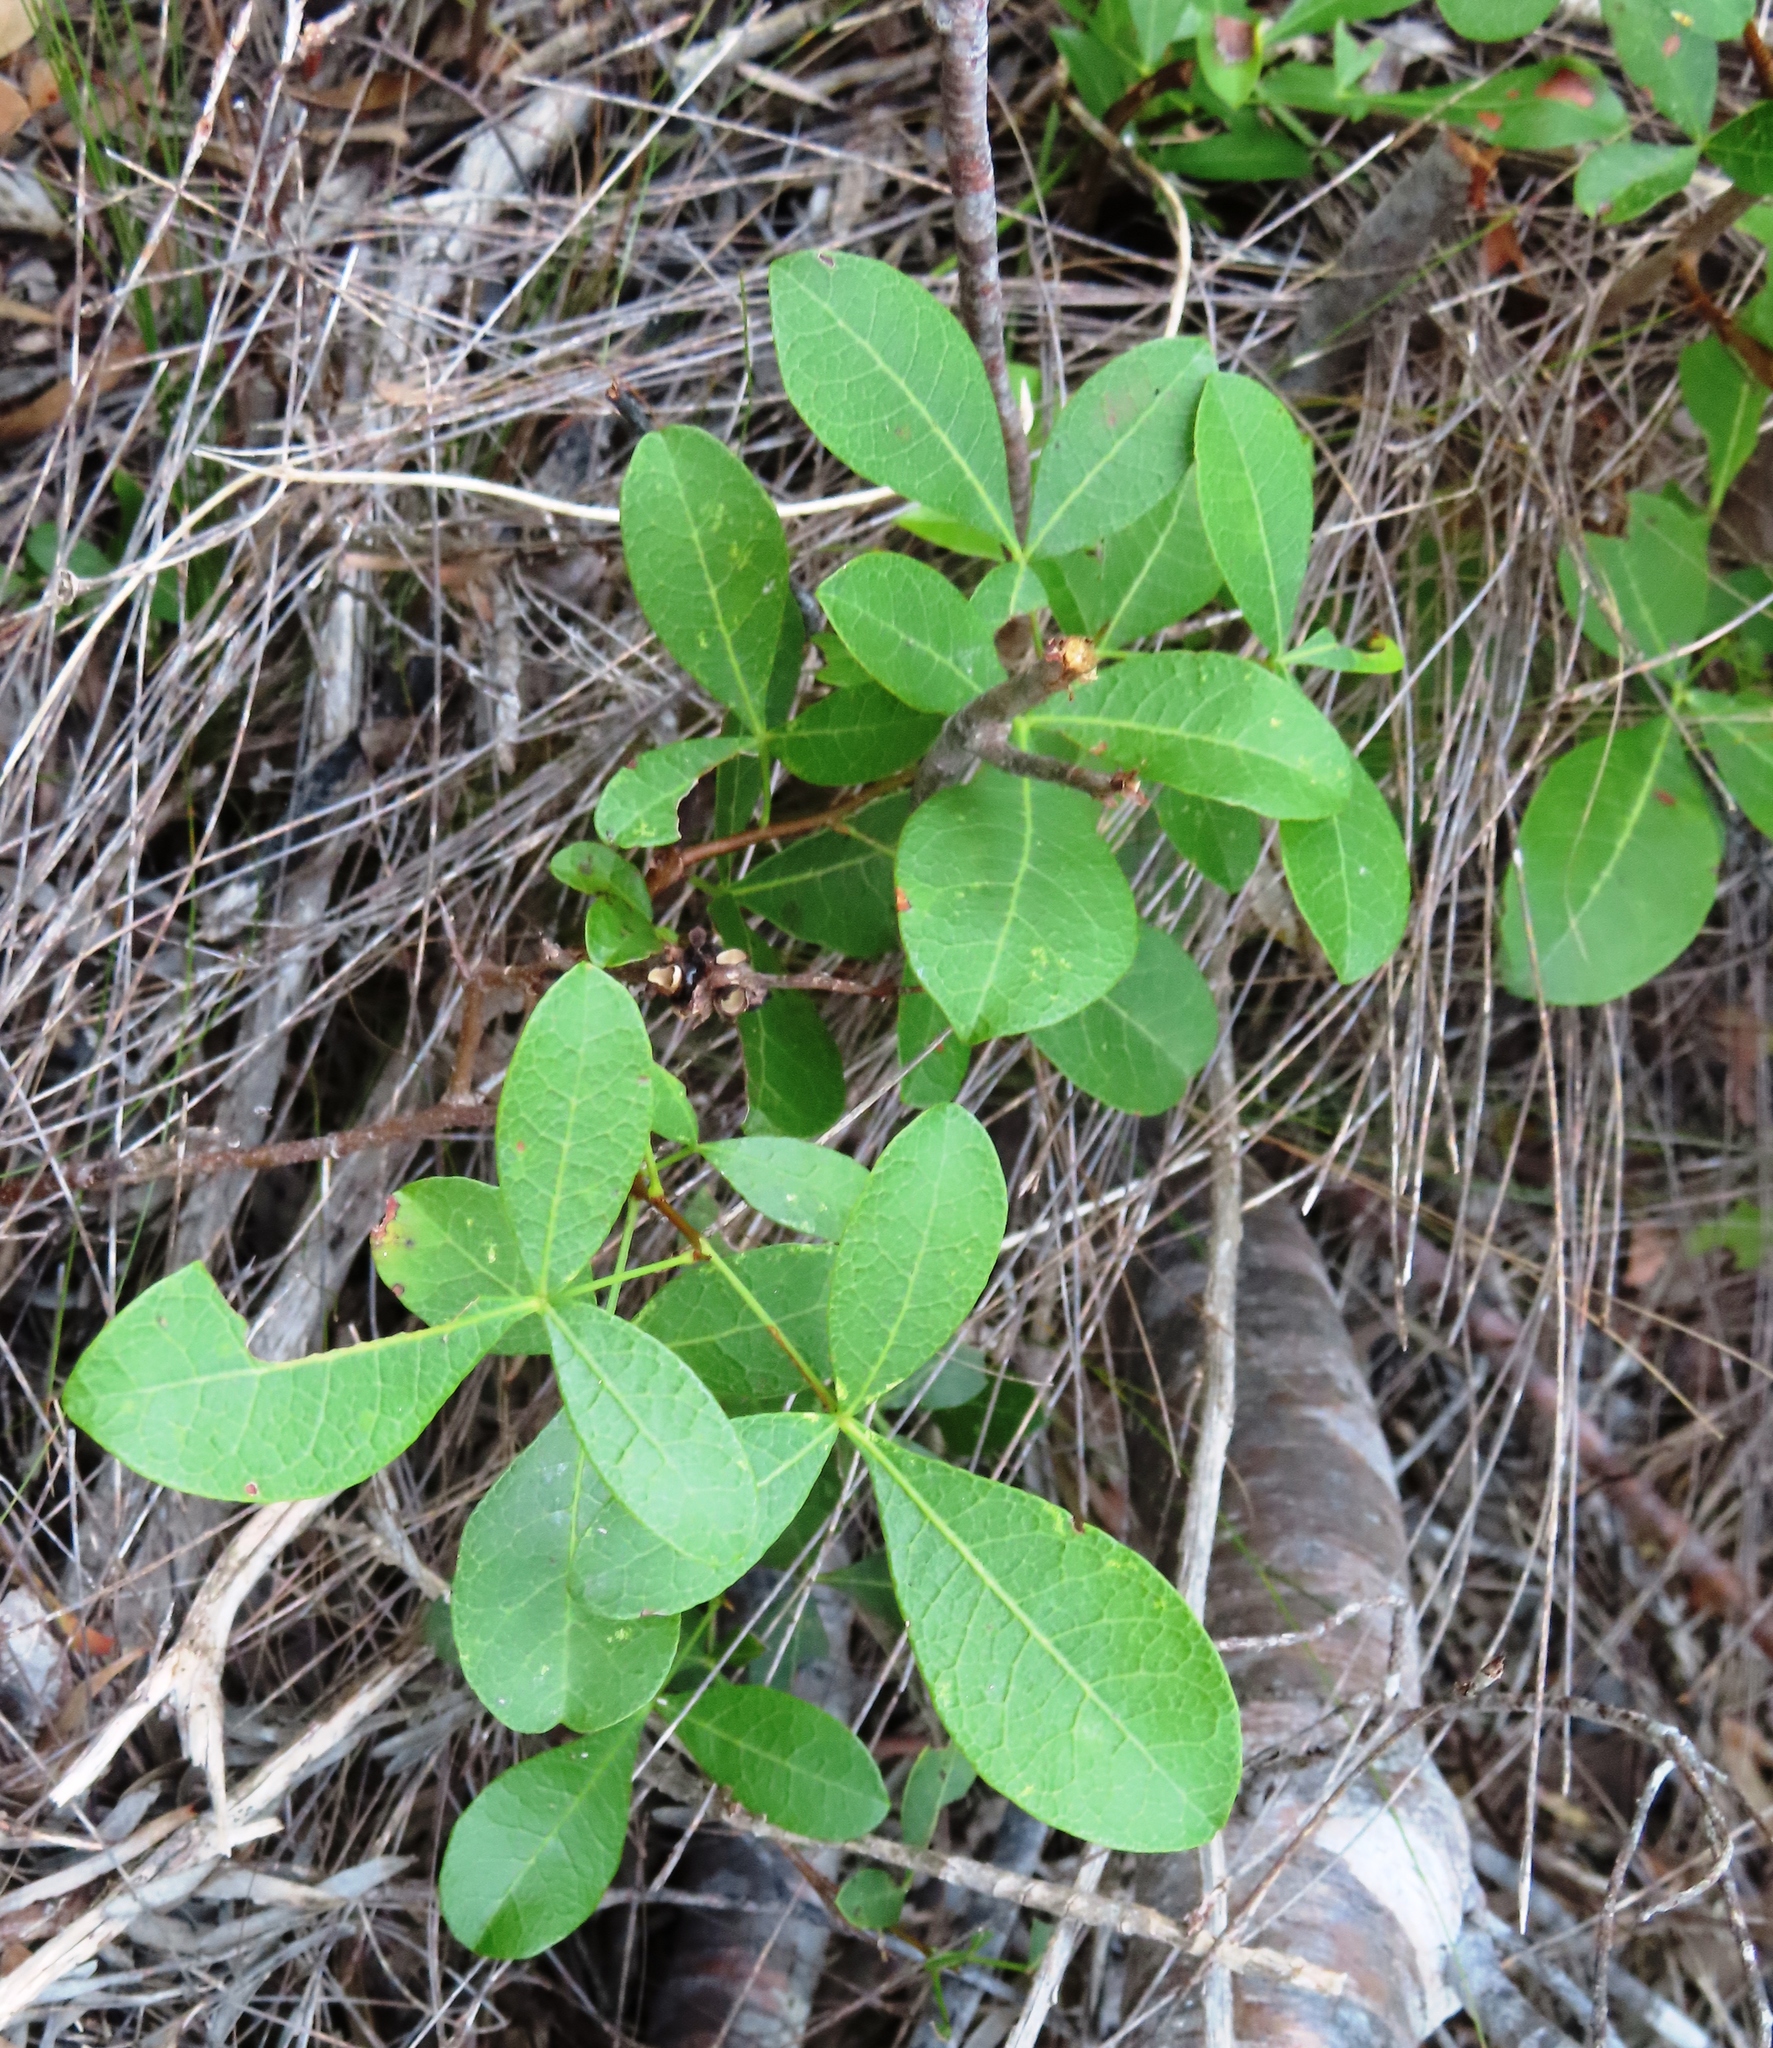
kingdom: Plantae
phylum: Tracheophyta
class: Magnoliopsida
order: Sapindales
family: Anacardiaceae
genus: Searsia
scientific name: Searsia laevigata
